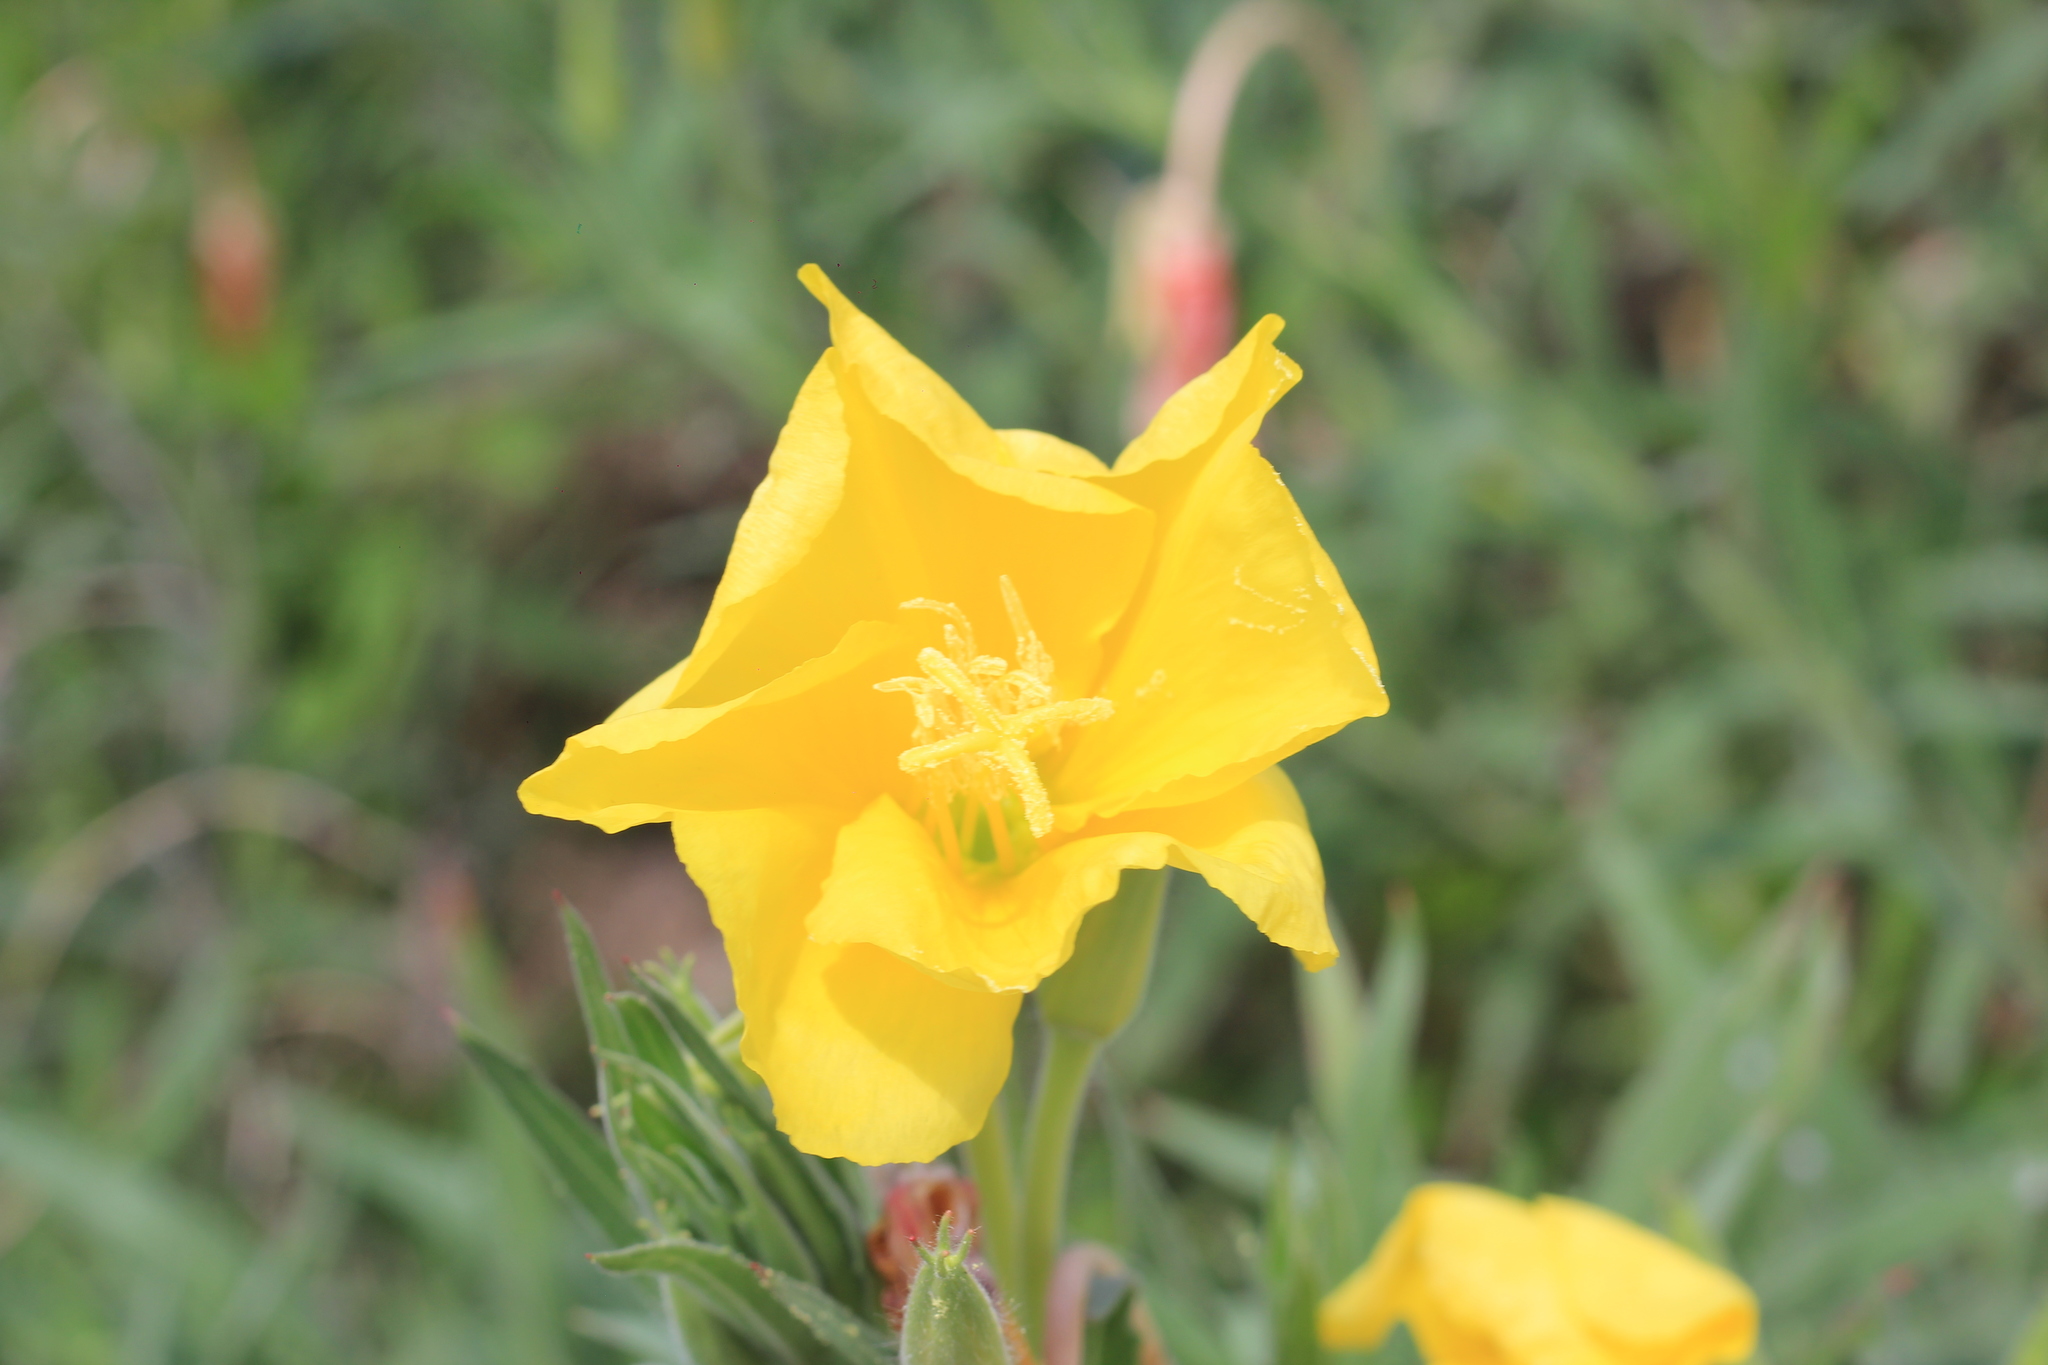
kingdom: Plantae
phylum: Tracheophyta
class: Magnoliopsida
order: Myrtales
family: Onagraceae
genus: Oenothera
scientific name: Oenothera affinis
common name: Longflower evening primrose
